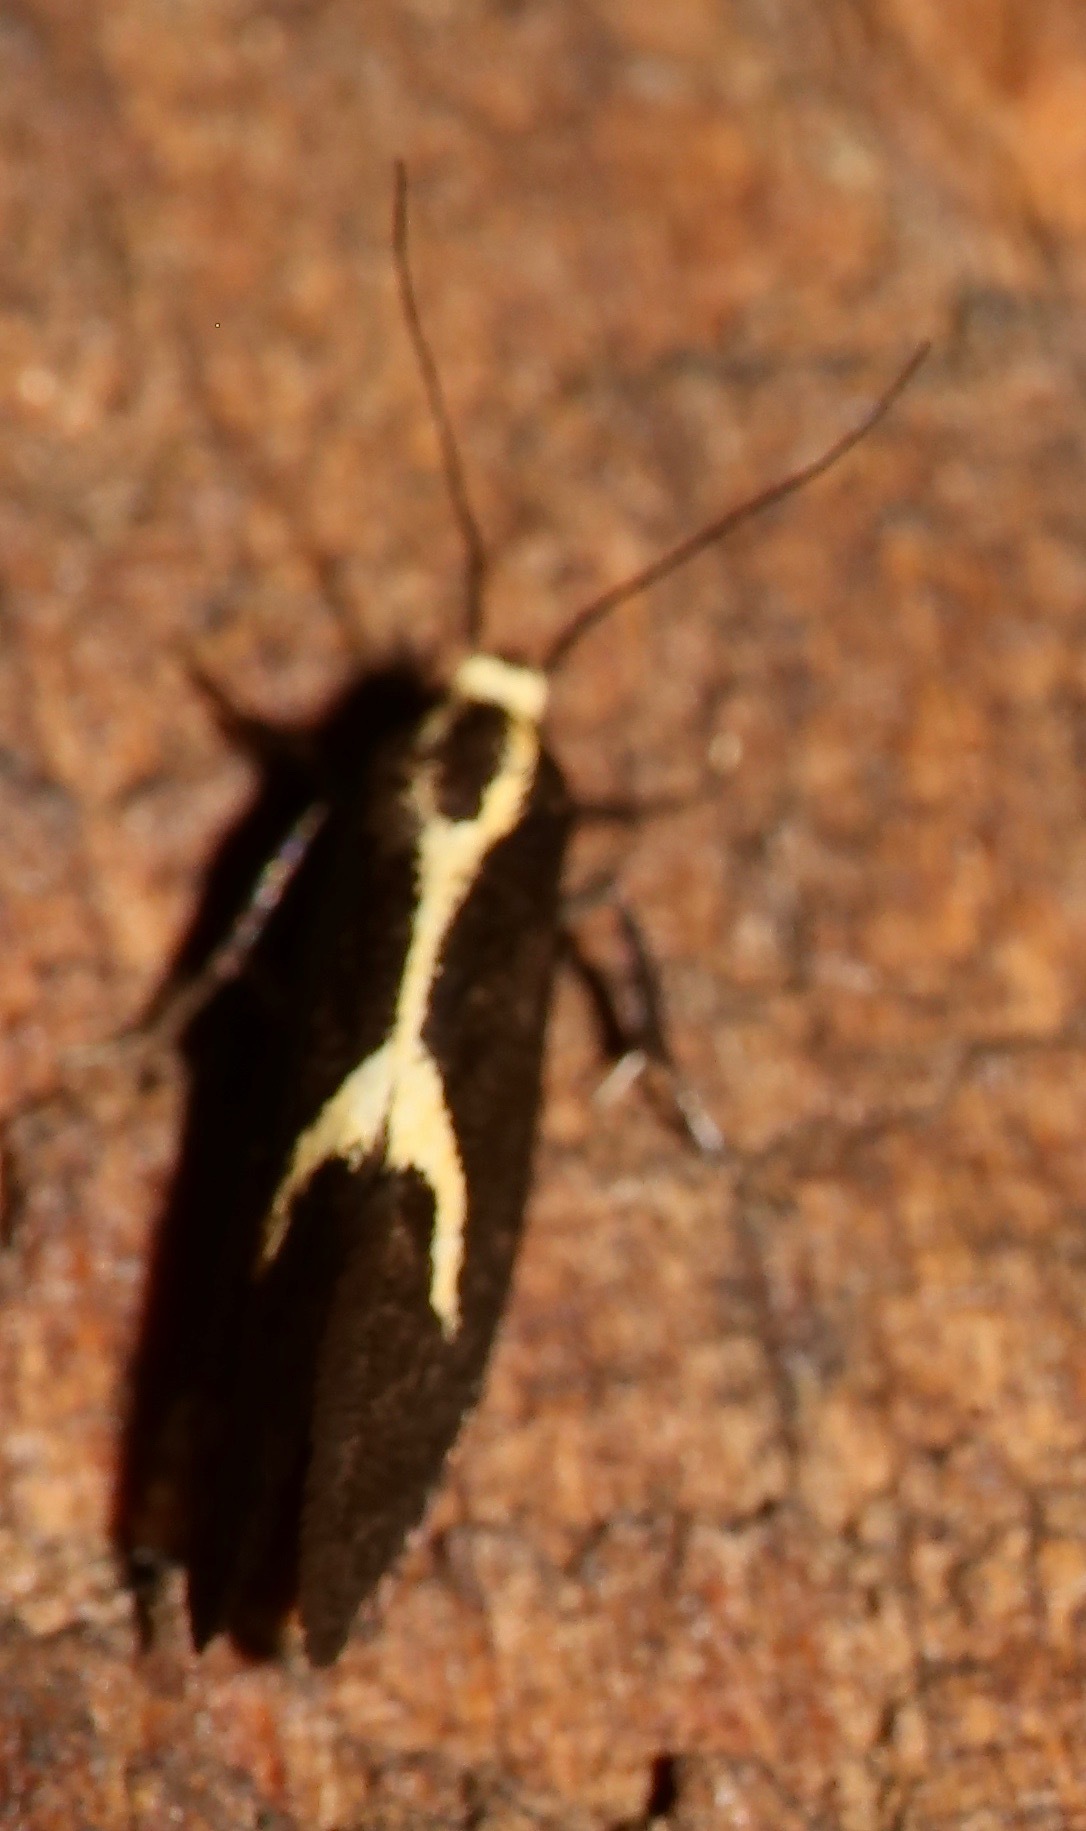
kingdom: Animalia
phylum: Arthropoda
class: Insecta
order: Lepidoptera
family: Oecophoridae
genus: Polix
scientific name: Polix coloradella
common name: Skunk moth
